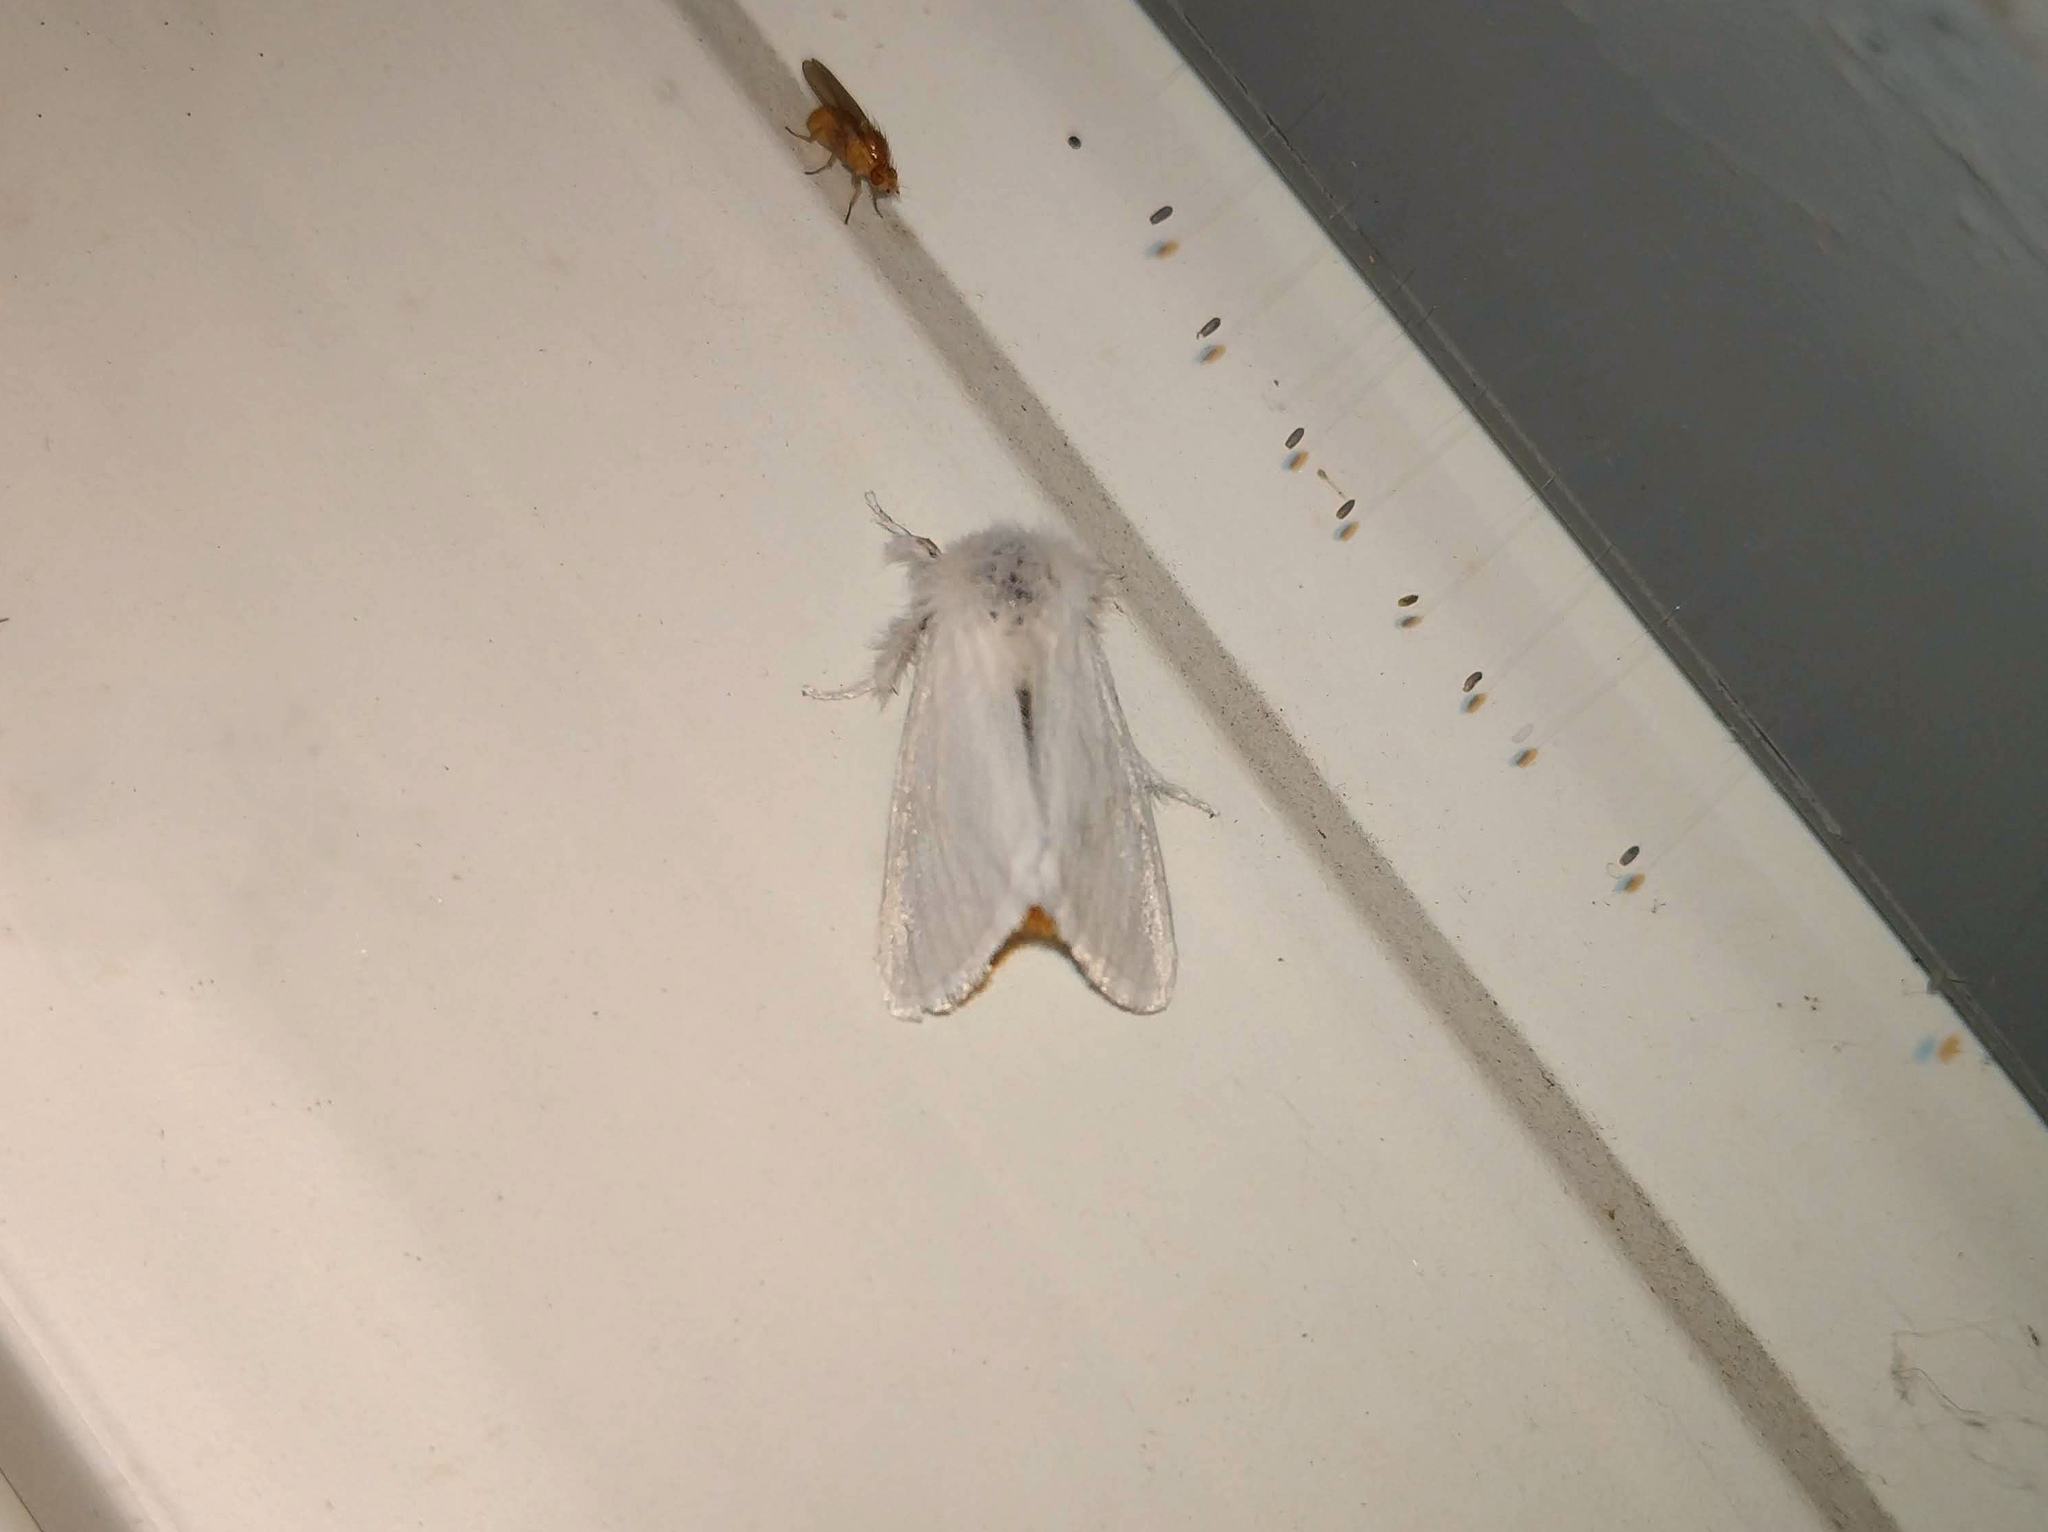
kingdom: Animalia
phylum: Arthropoda
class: Insecta
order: Lepidoptera
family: Erebidae
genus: Euproctis
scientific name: Euproctis chrysorrhoea
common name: Brown-tail
